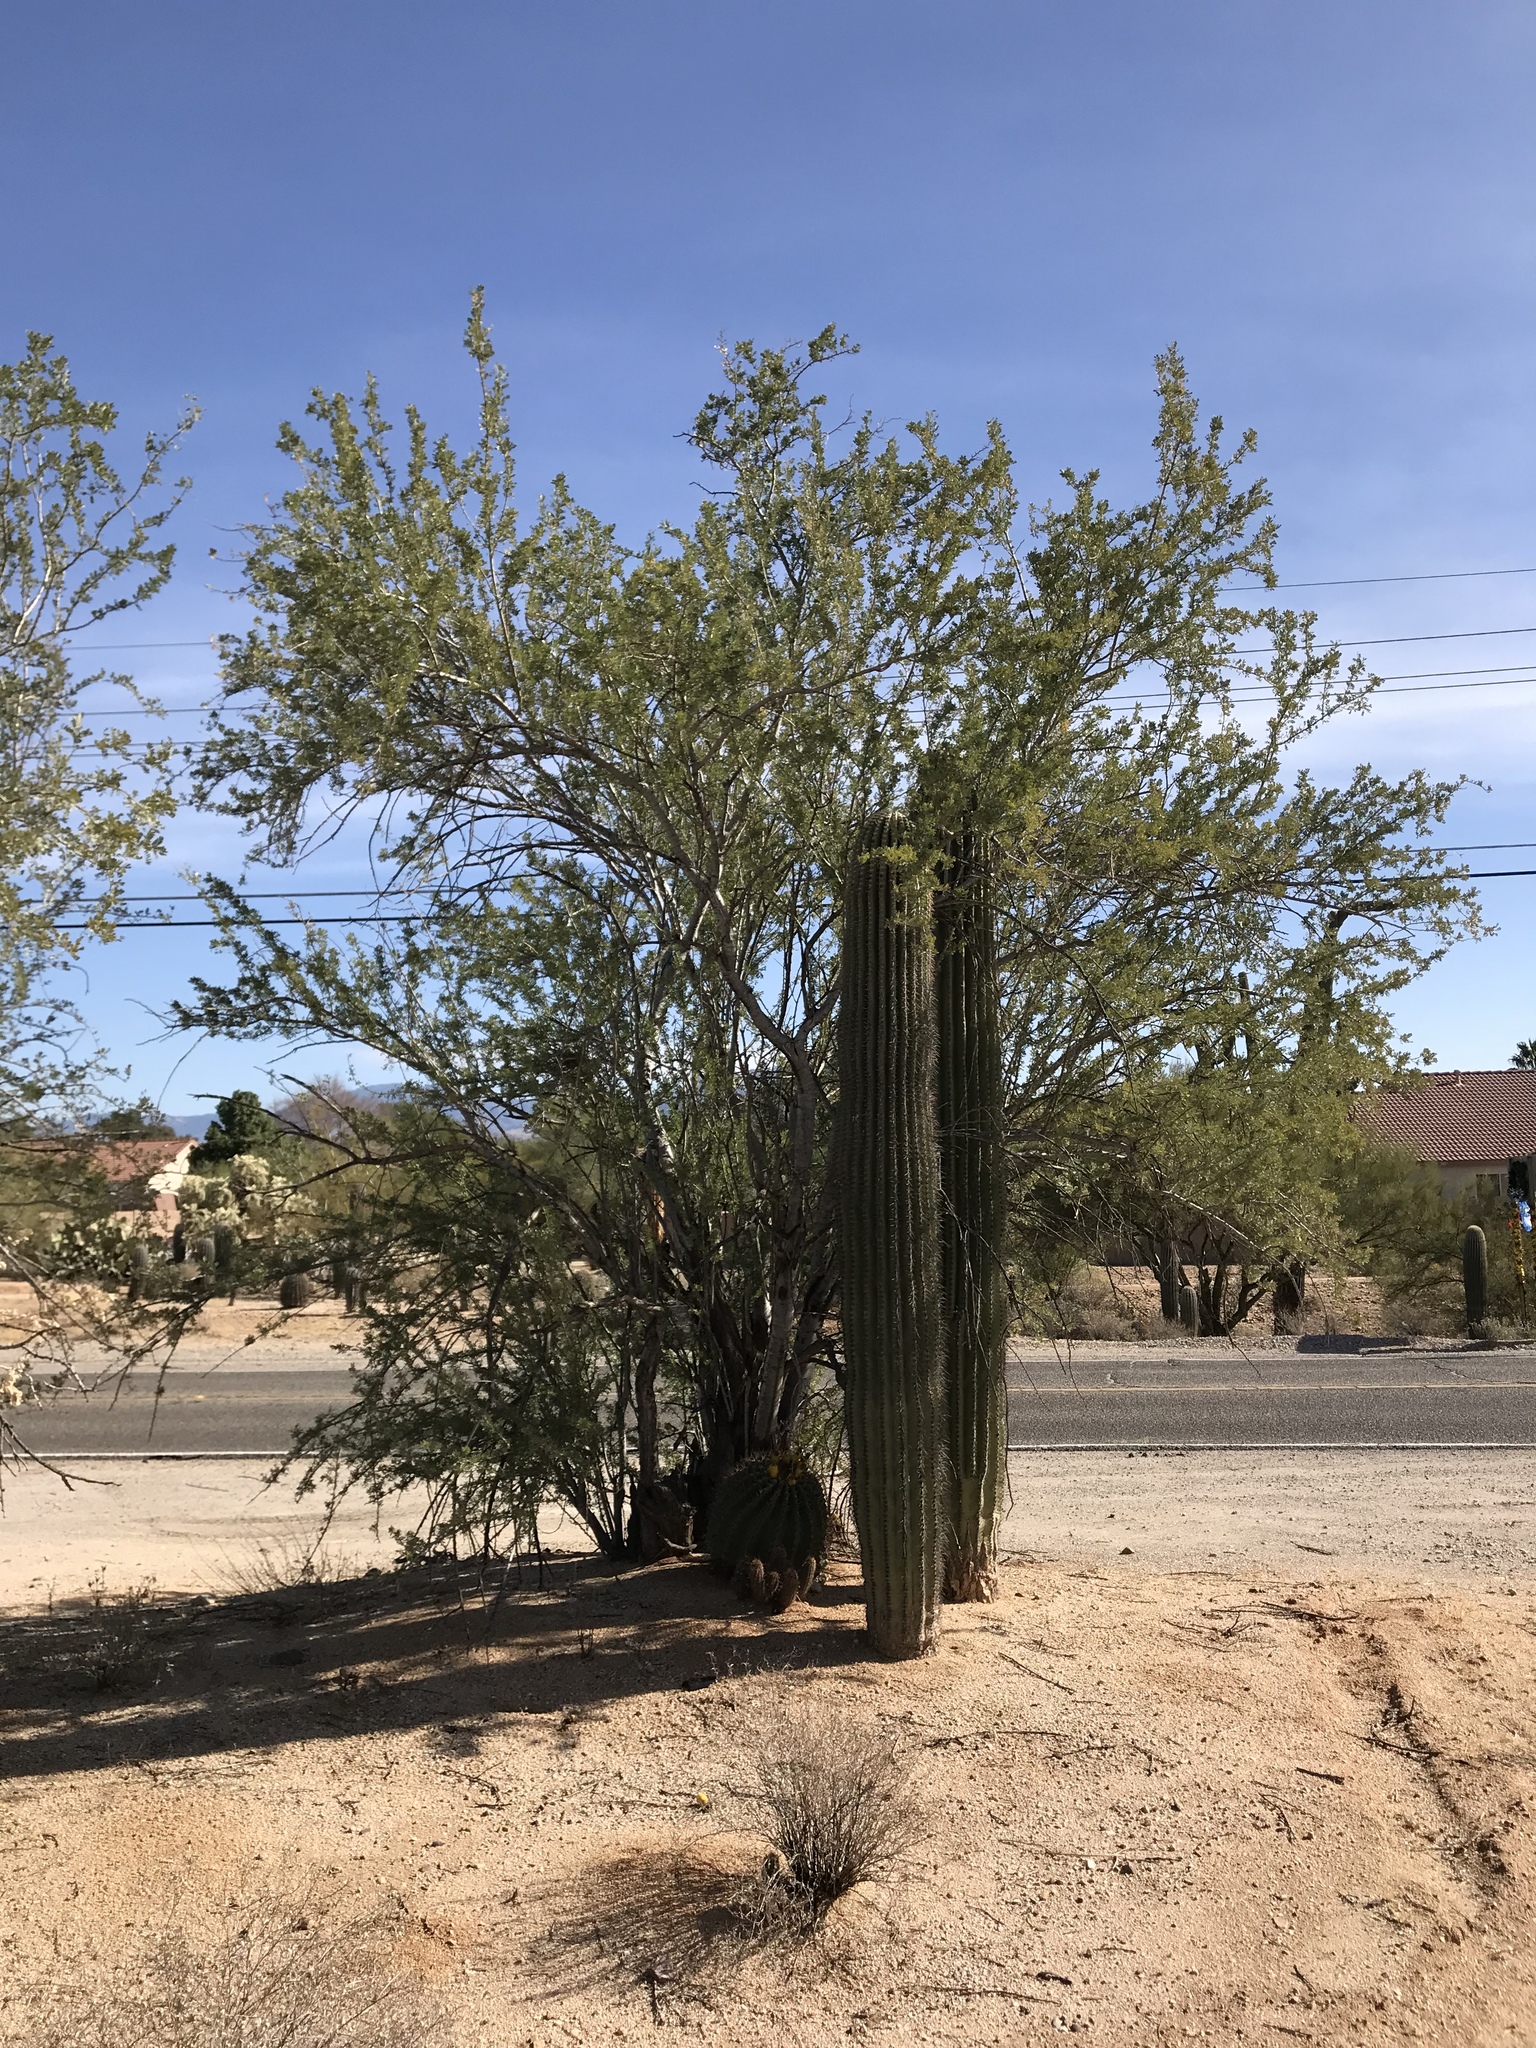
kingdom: Plantae
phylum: Tracheophyta
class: Magnoliopsida
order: Fabales
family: Fabaceae
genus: Olneya
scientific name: Olneya tesota
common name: Desert ironwood
